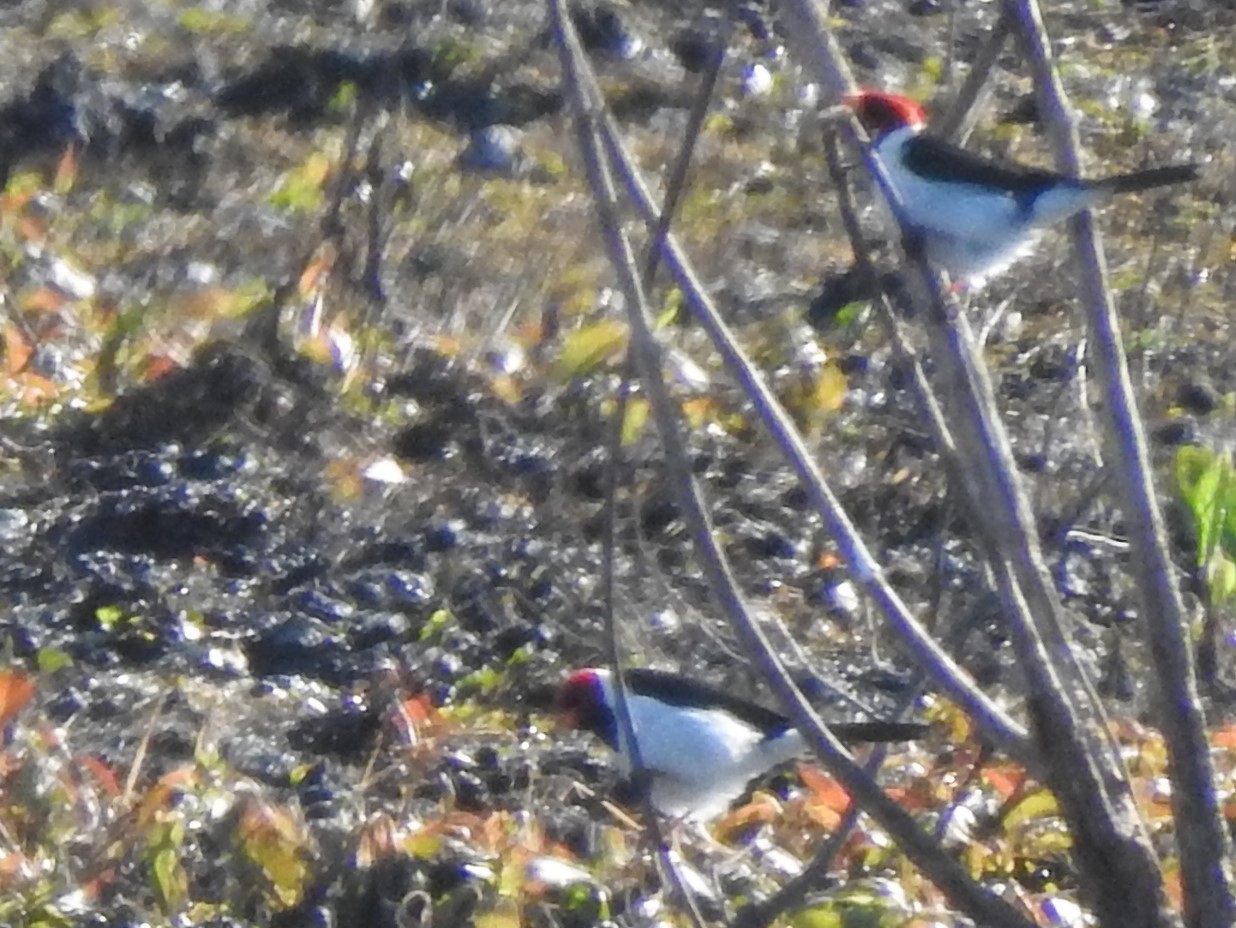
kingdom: Animalia
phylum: Chordata
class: Aves
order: Passeriformes
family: Thraupidae
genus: Paroaria
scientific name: Paroaria capitata
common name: Yellow-billed cardinal
